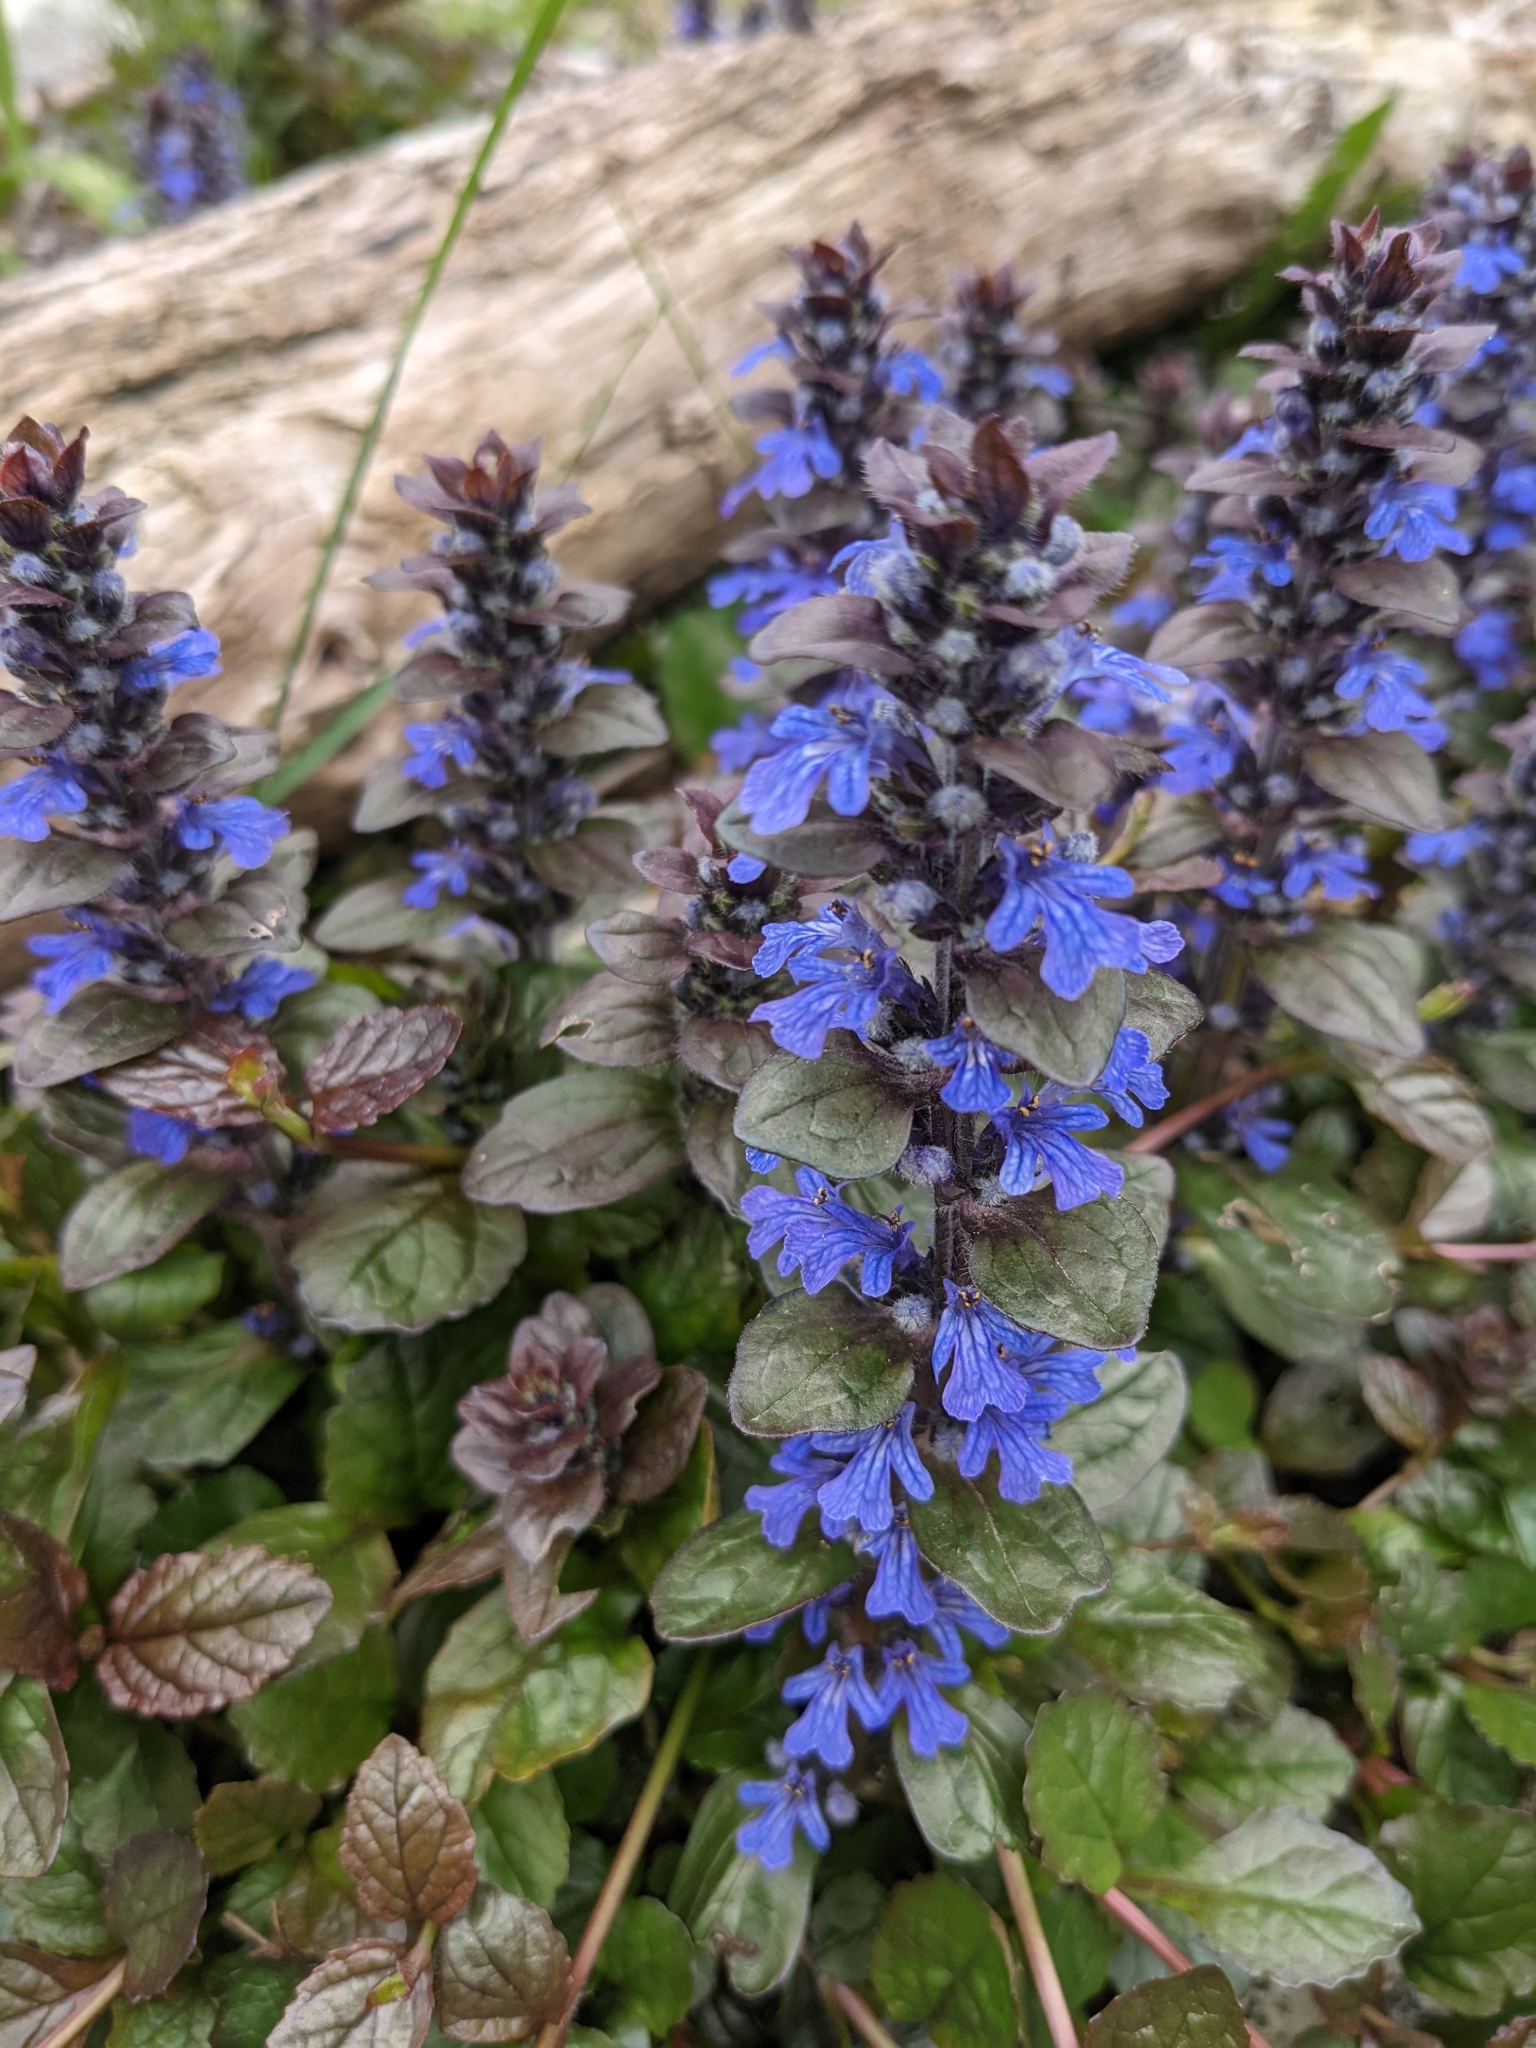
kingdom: Plantae
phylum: Tracheophyta
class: Magnoliopsida
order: Lamiales
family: Lamiaceae
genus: Ajuga
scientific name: Ajuga reptans
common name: Bugle
